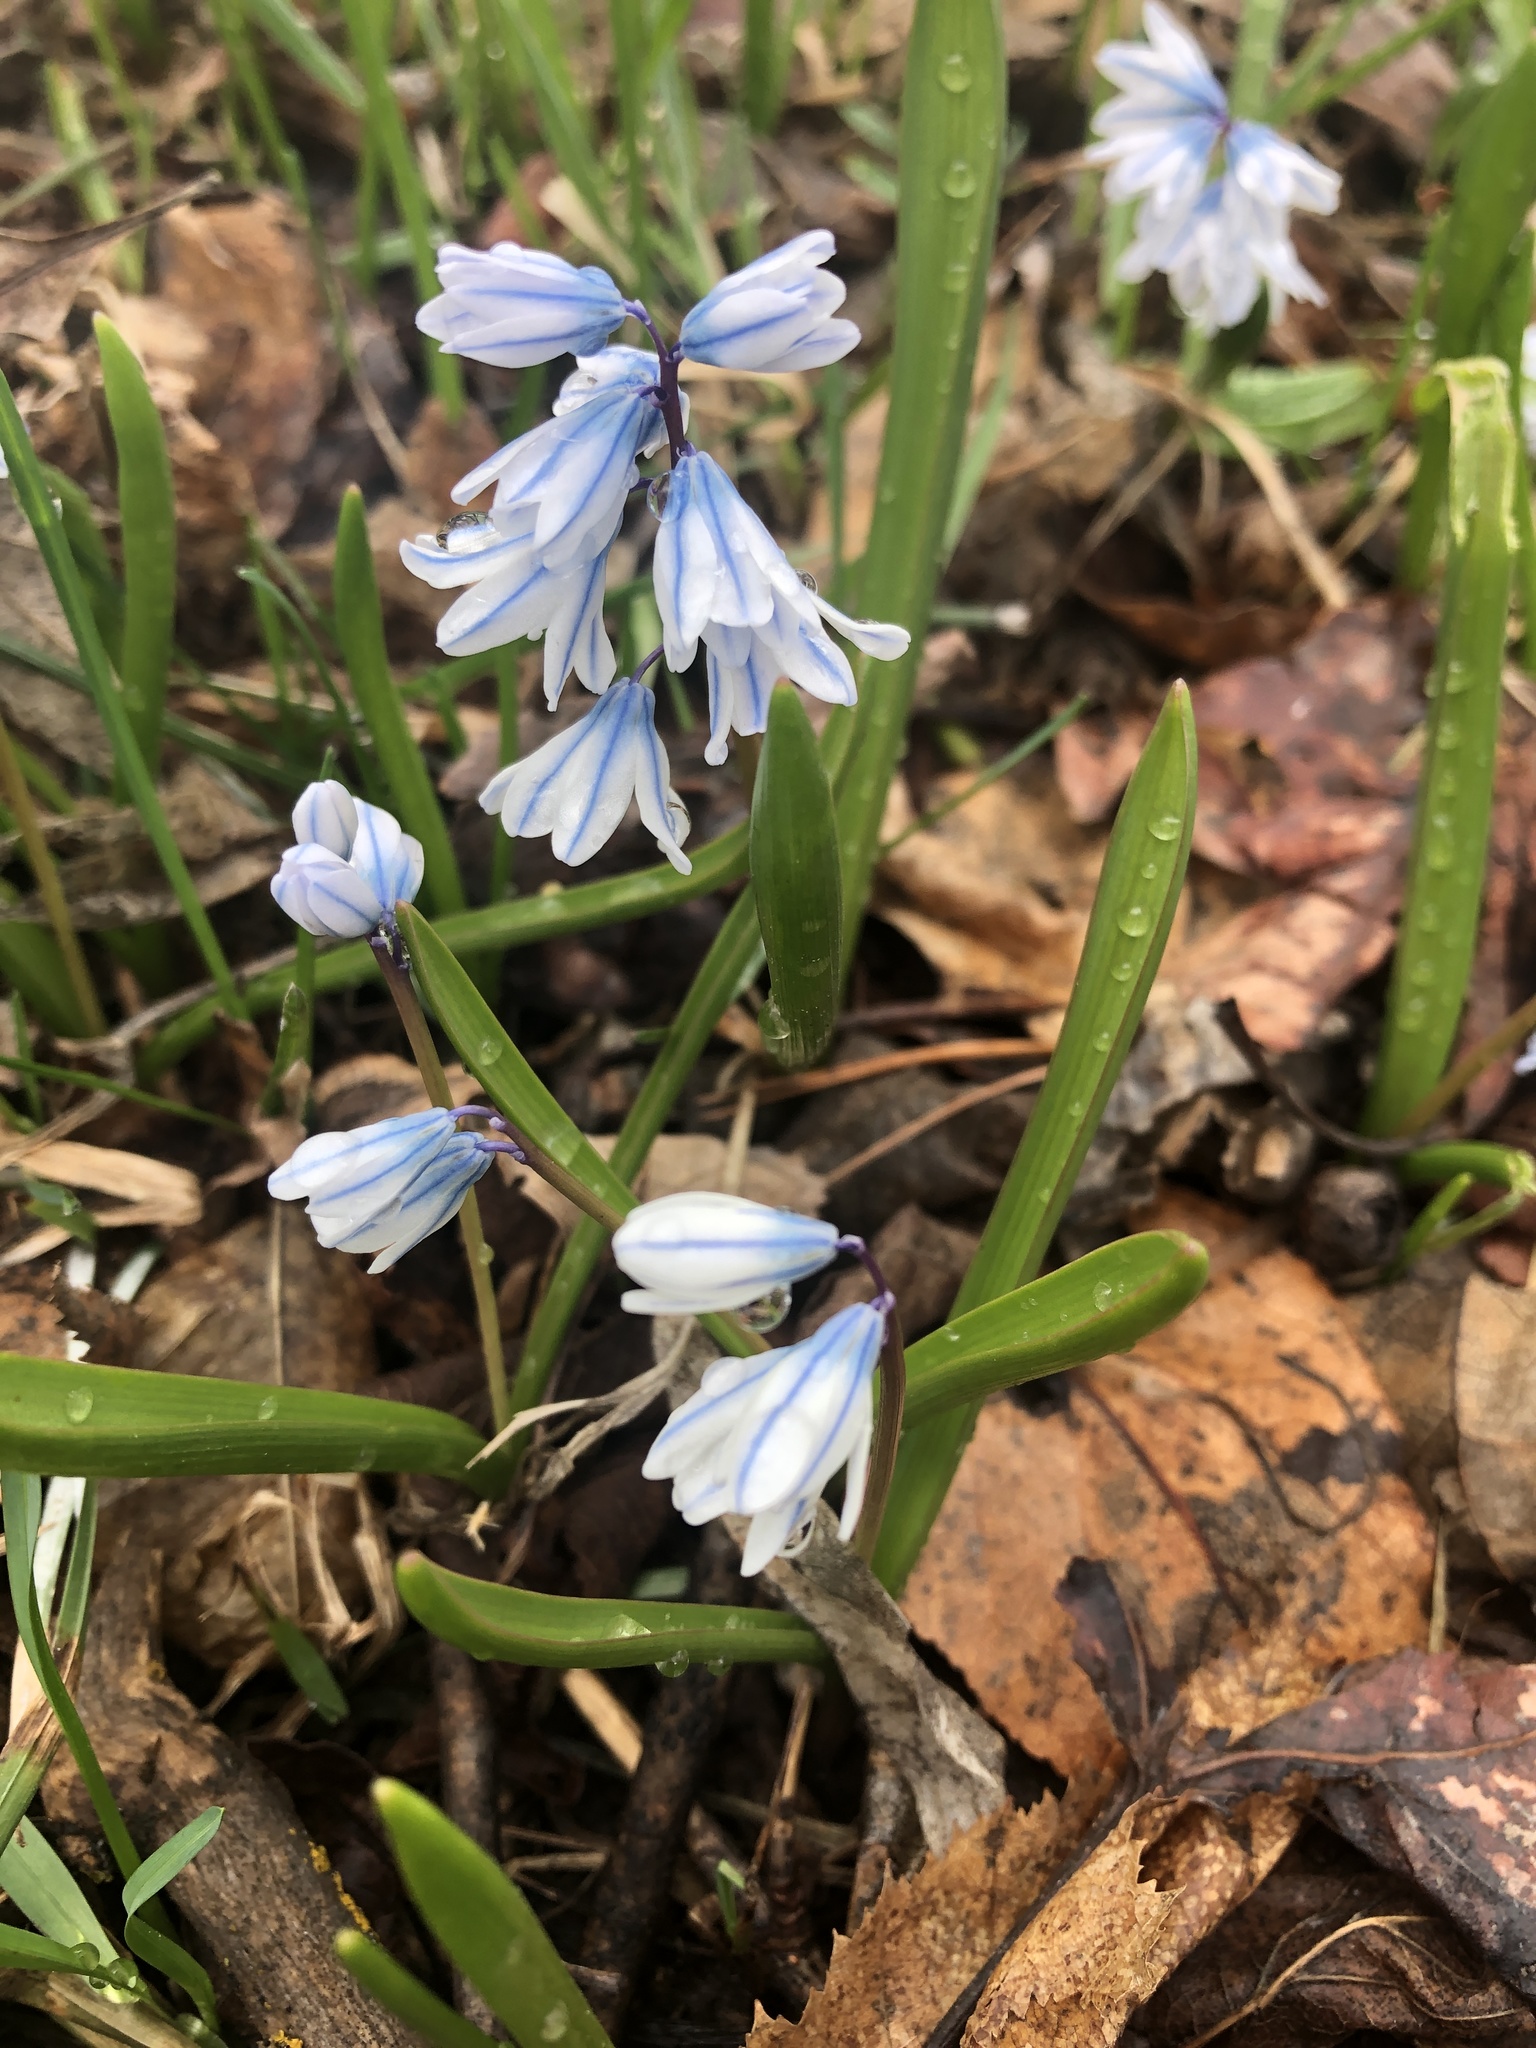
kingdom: Plantae
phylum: Tracheophyta
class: Liliopsida
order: Asparagales
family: Asparagaceae
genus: Puschkinia
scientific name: Puschkinia scilloides
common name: Striped squill
